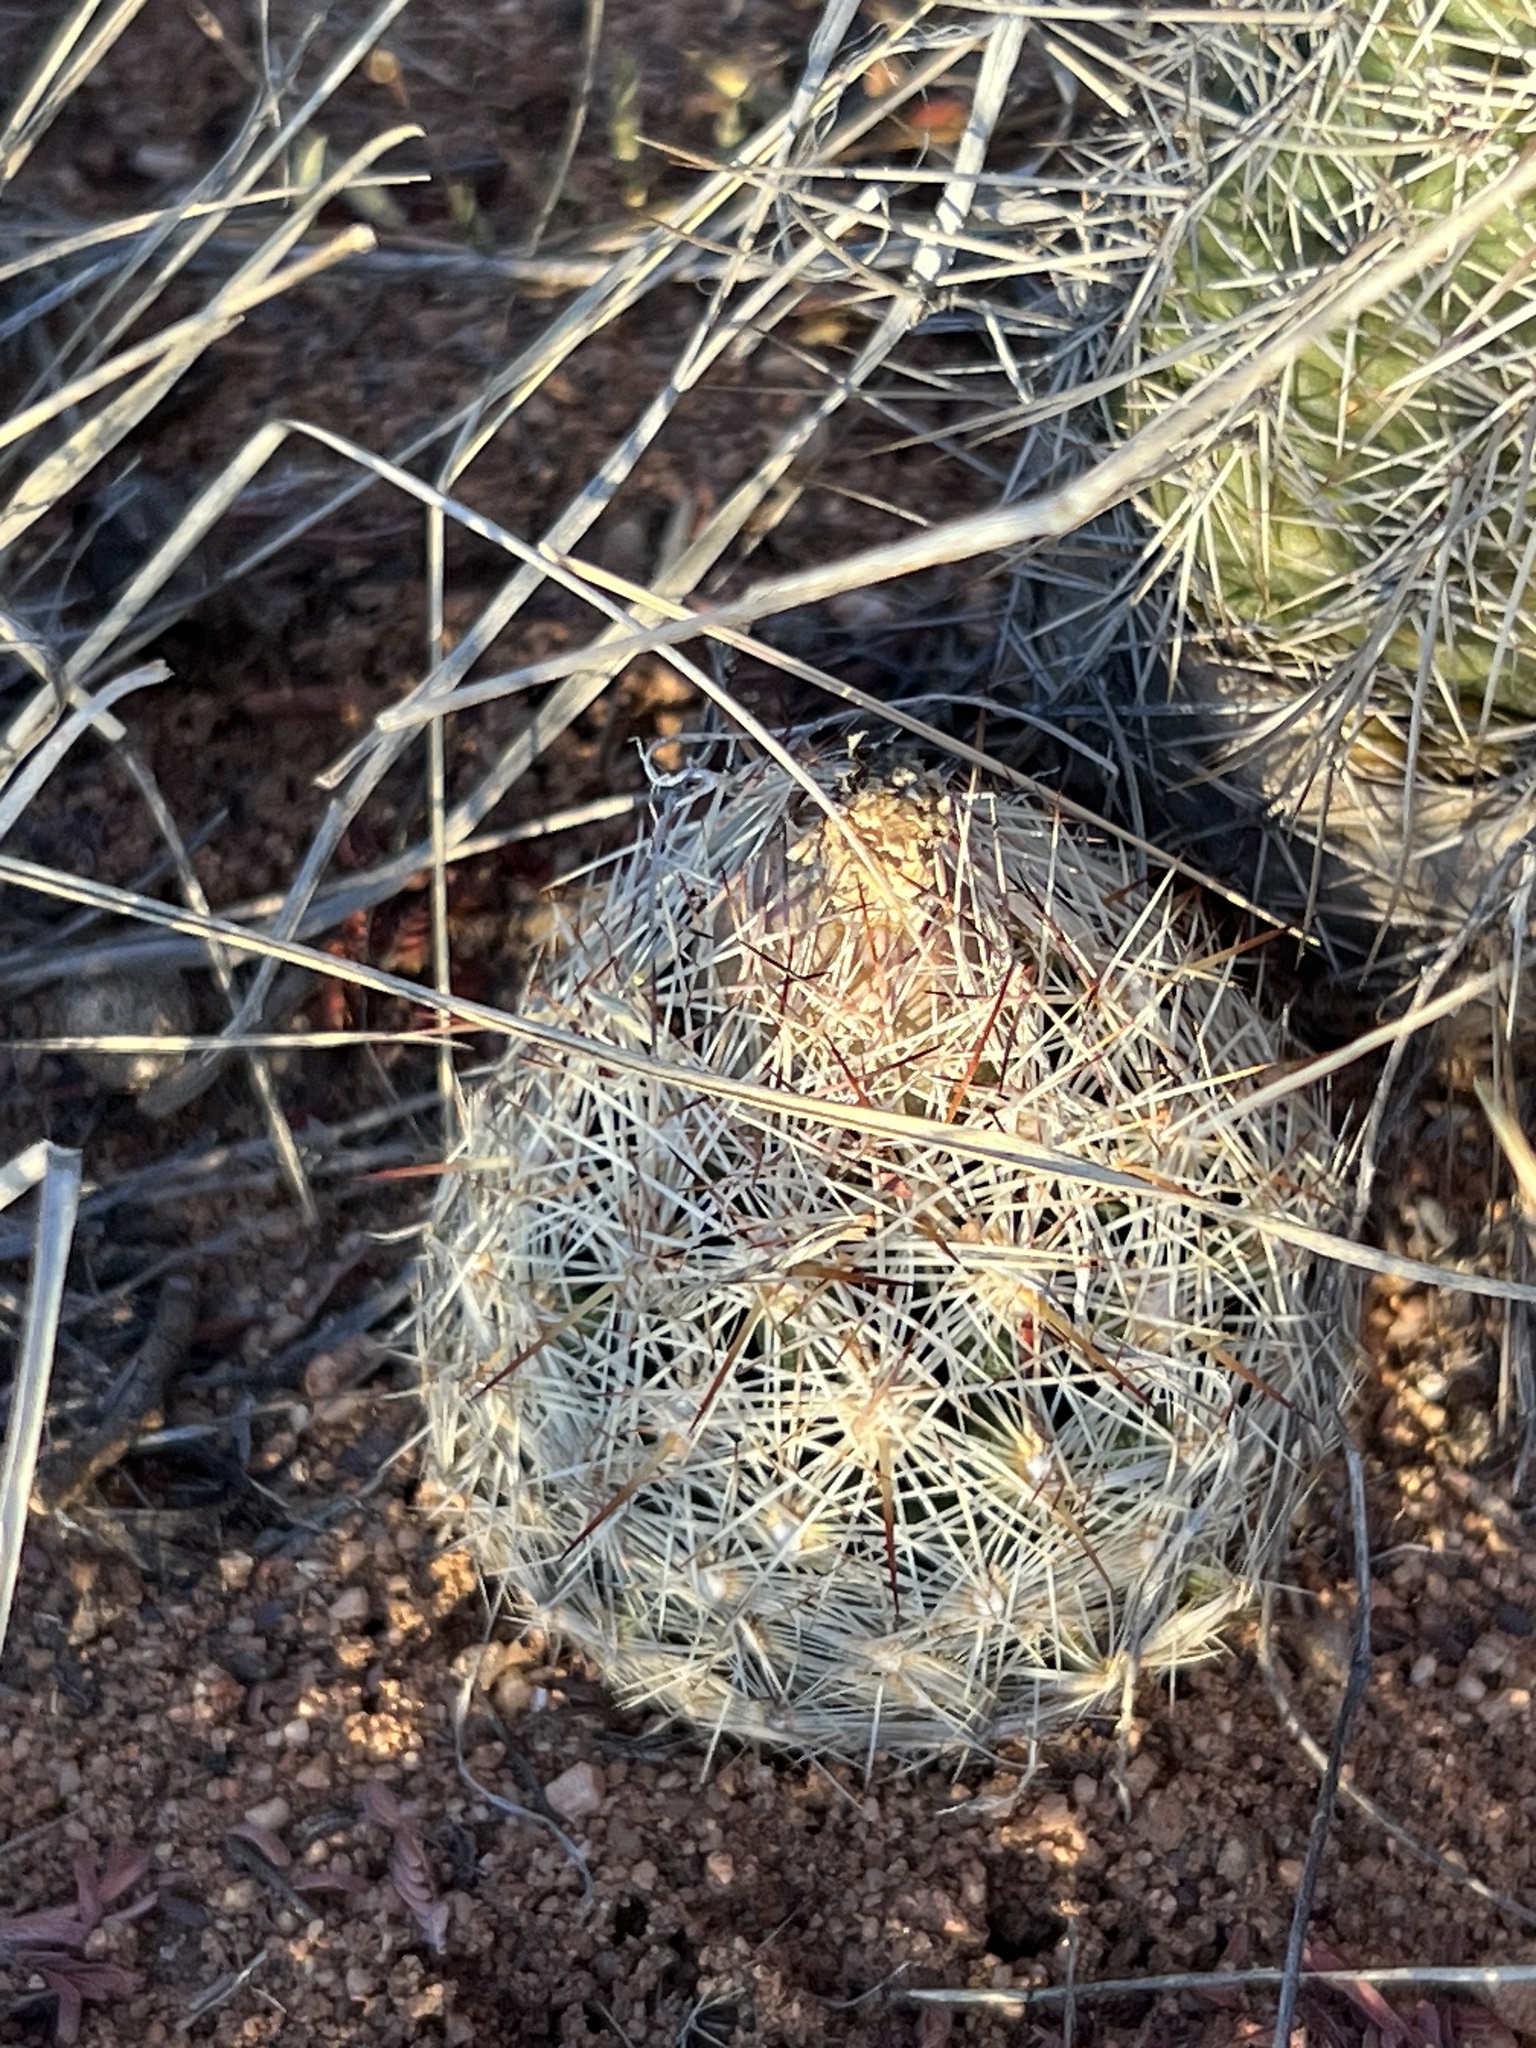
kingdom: Plantae
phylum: Tracheophyta
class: Magnoliopsida
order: Caryophyllales
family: Cactaceae
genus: Sclerocactus
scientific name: Sclerocactus intertextus
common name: White fish-hook cactus
